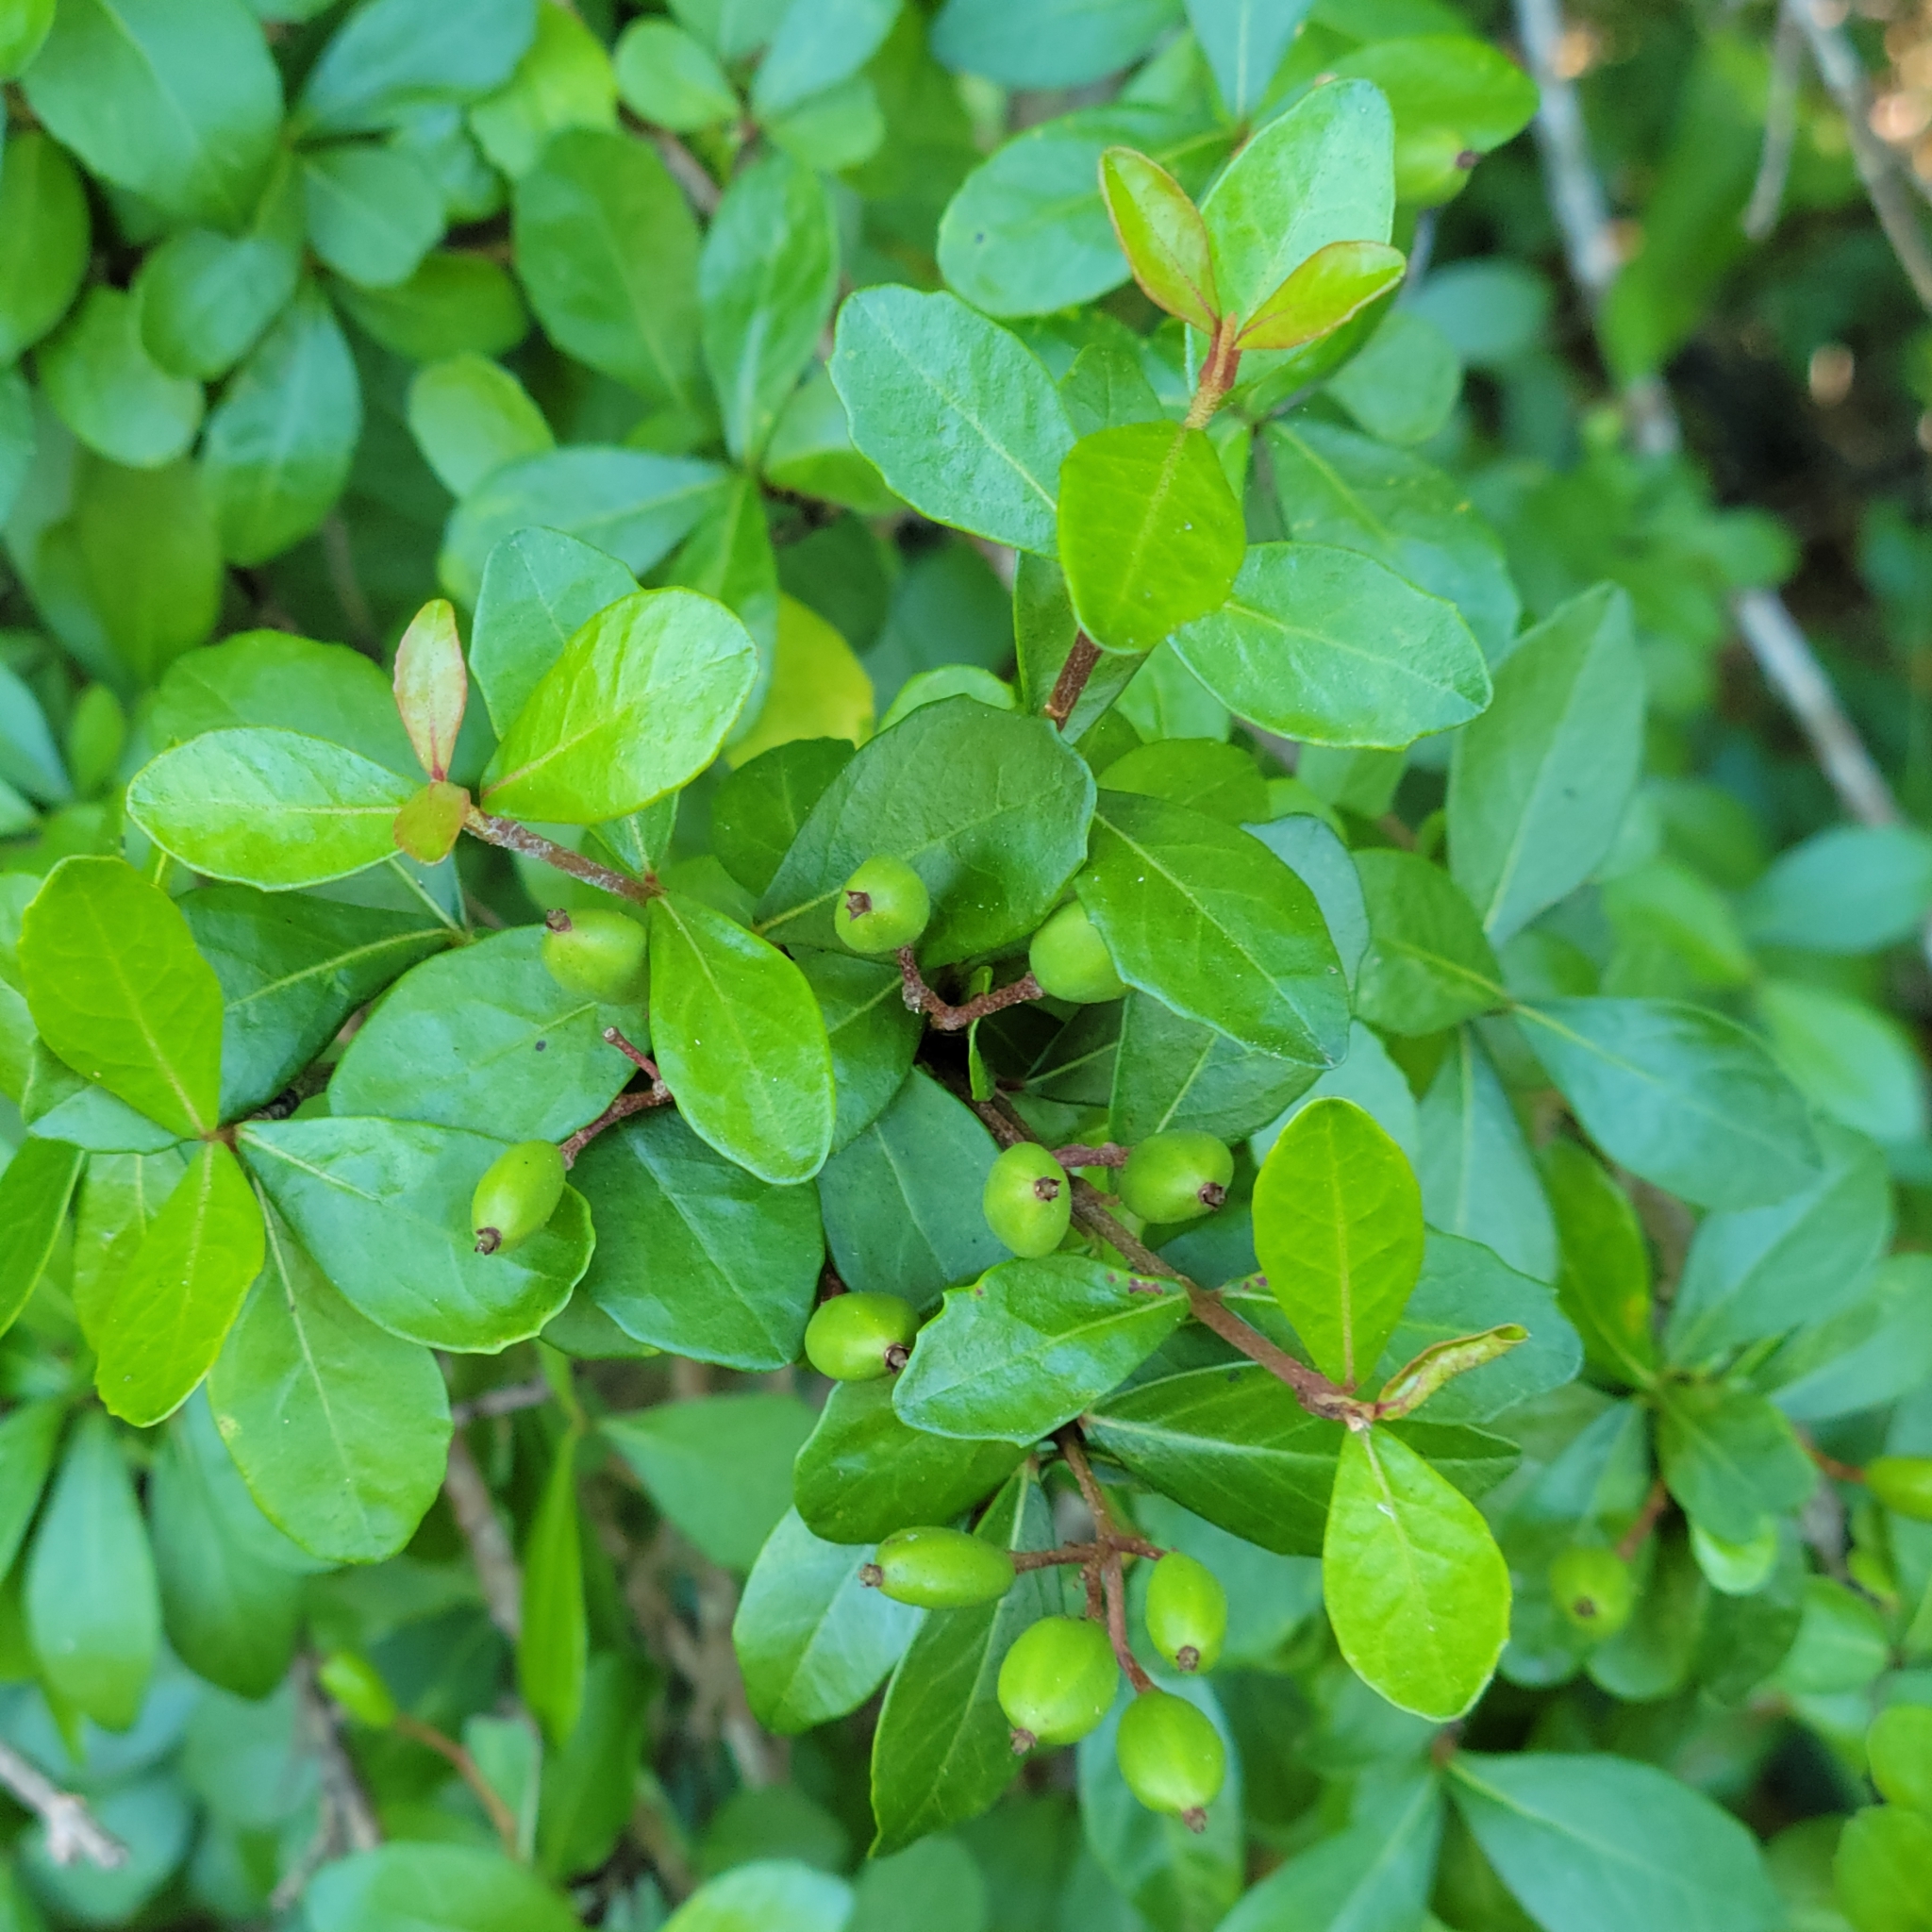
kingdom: Plantae
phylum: Tracheophyta
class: Magnoliopsida
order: Dipsacales
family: Viburnaceae
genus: Viburnum
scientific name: Viburnum obovatum
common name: Walter's viburnum
